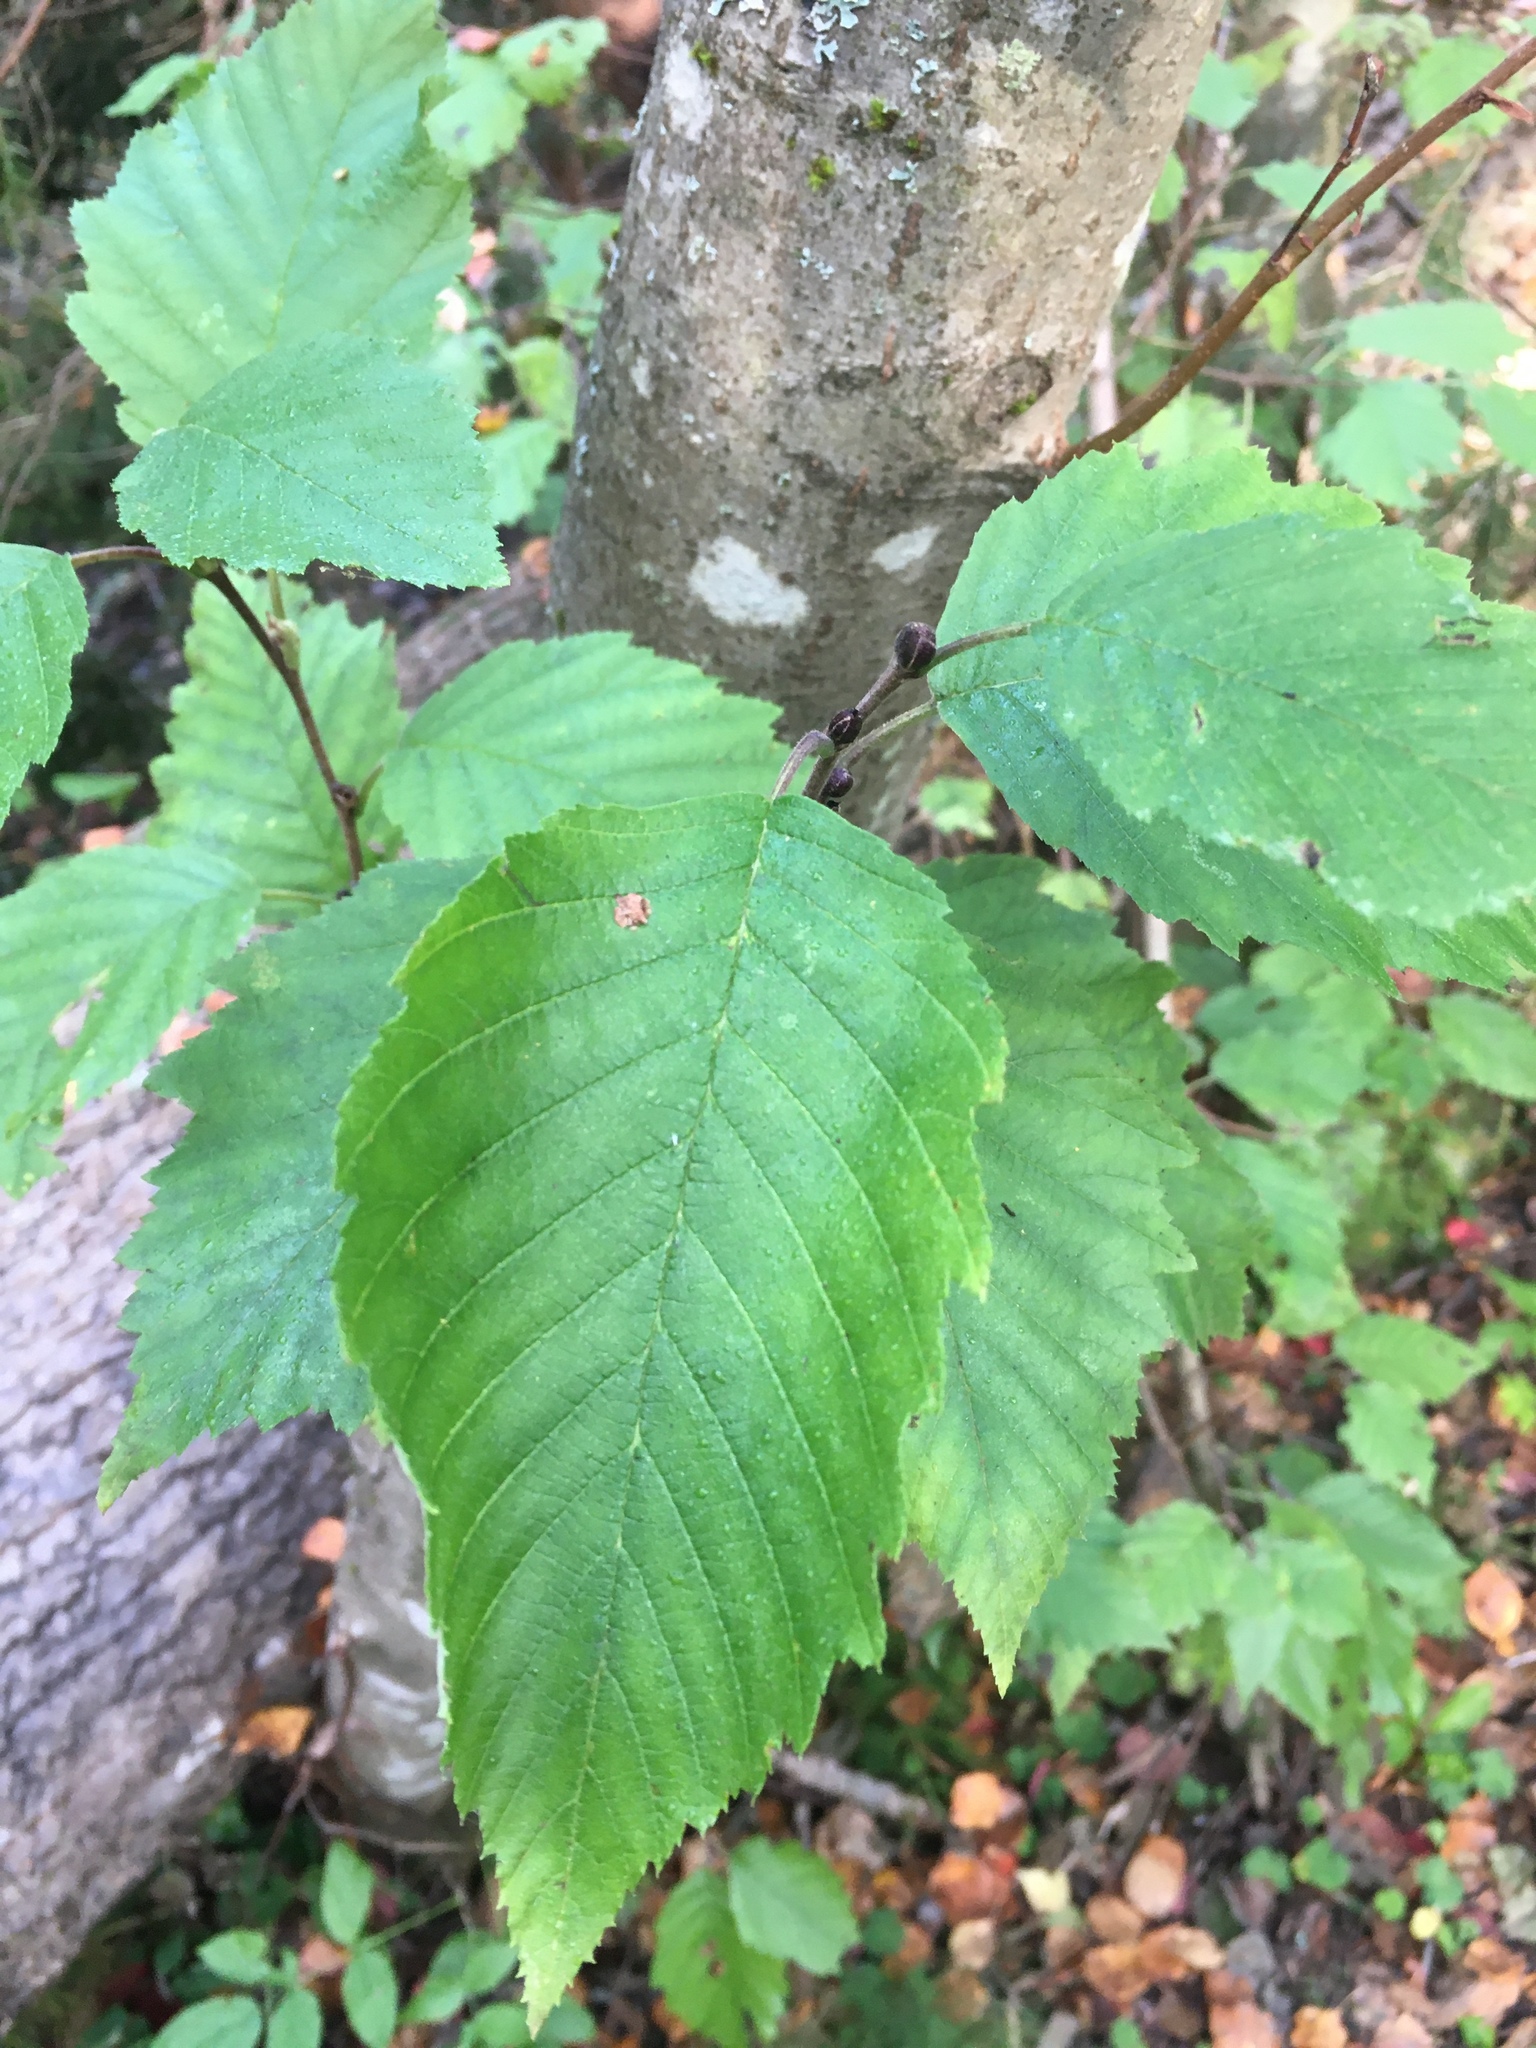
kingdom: Plantae
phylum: Tracheophyta
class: Magnoliopsida
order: Fagales
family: Betulaceae
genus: Alnus
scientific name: Alnus incana
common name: Grey alder
